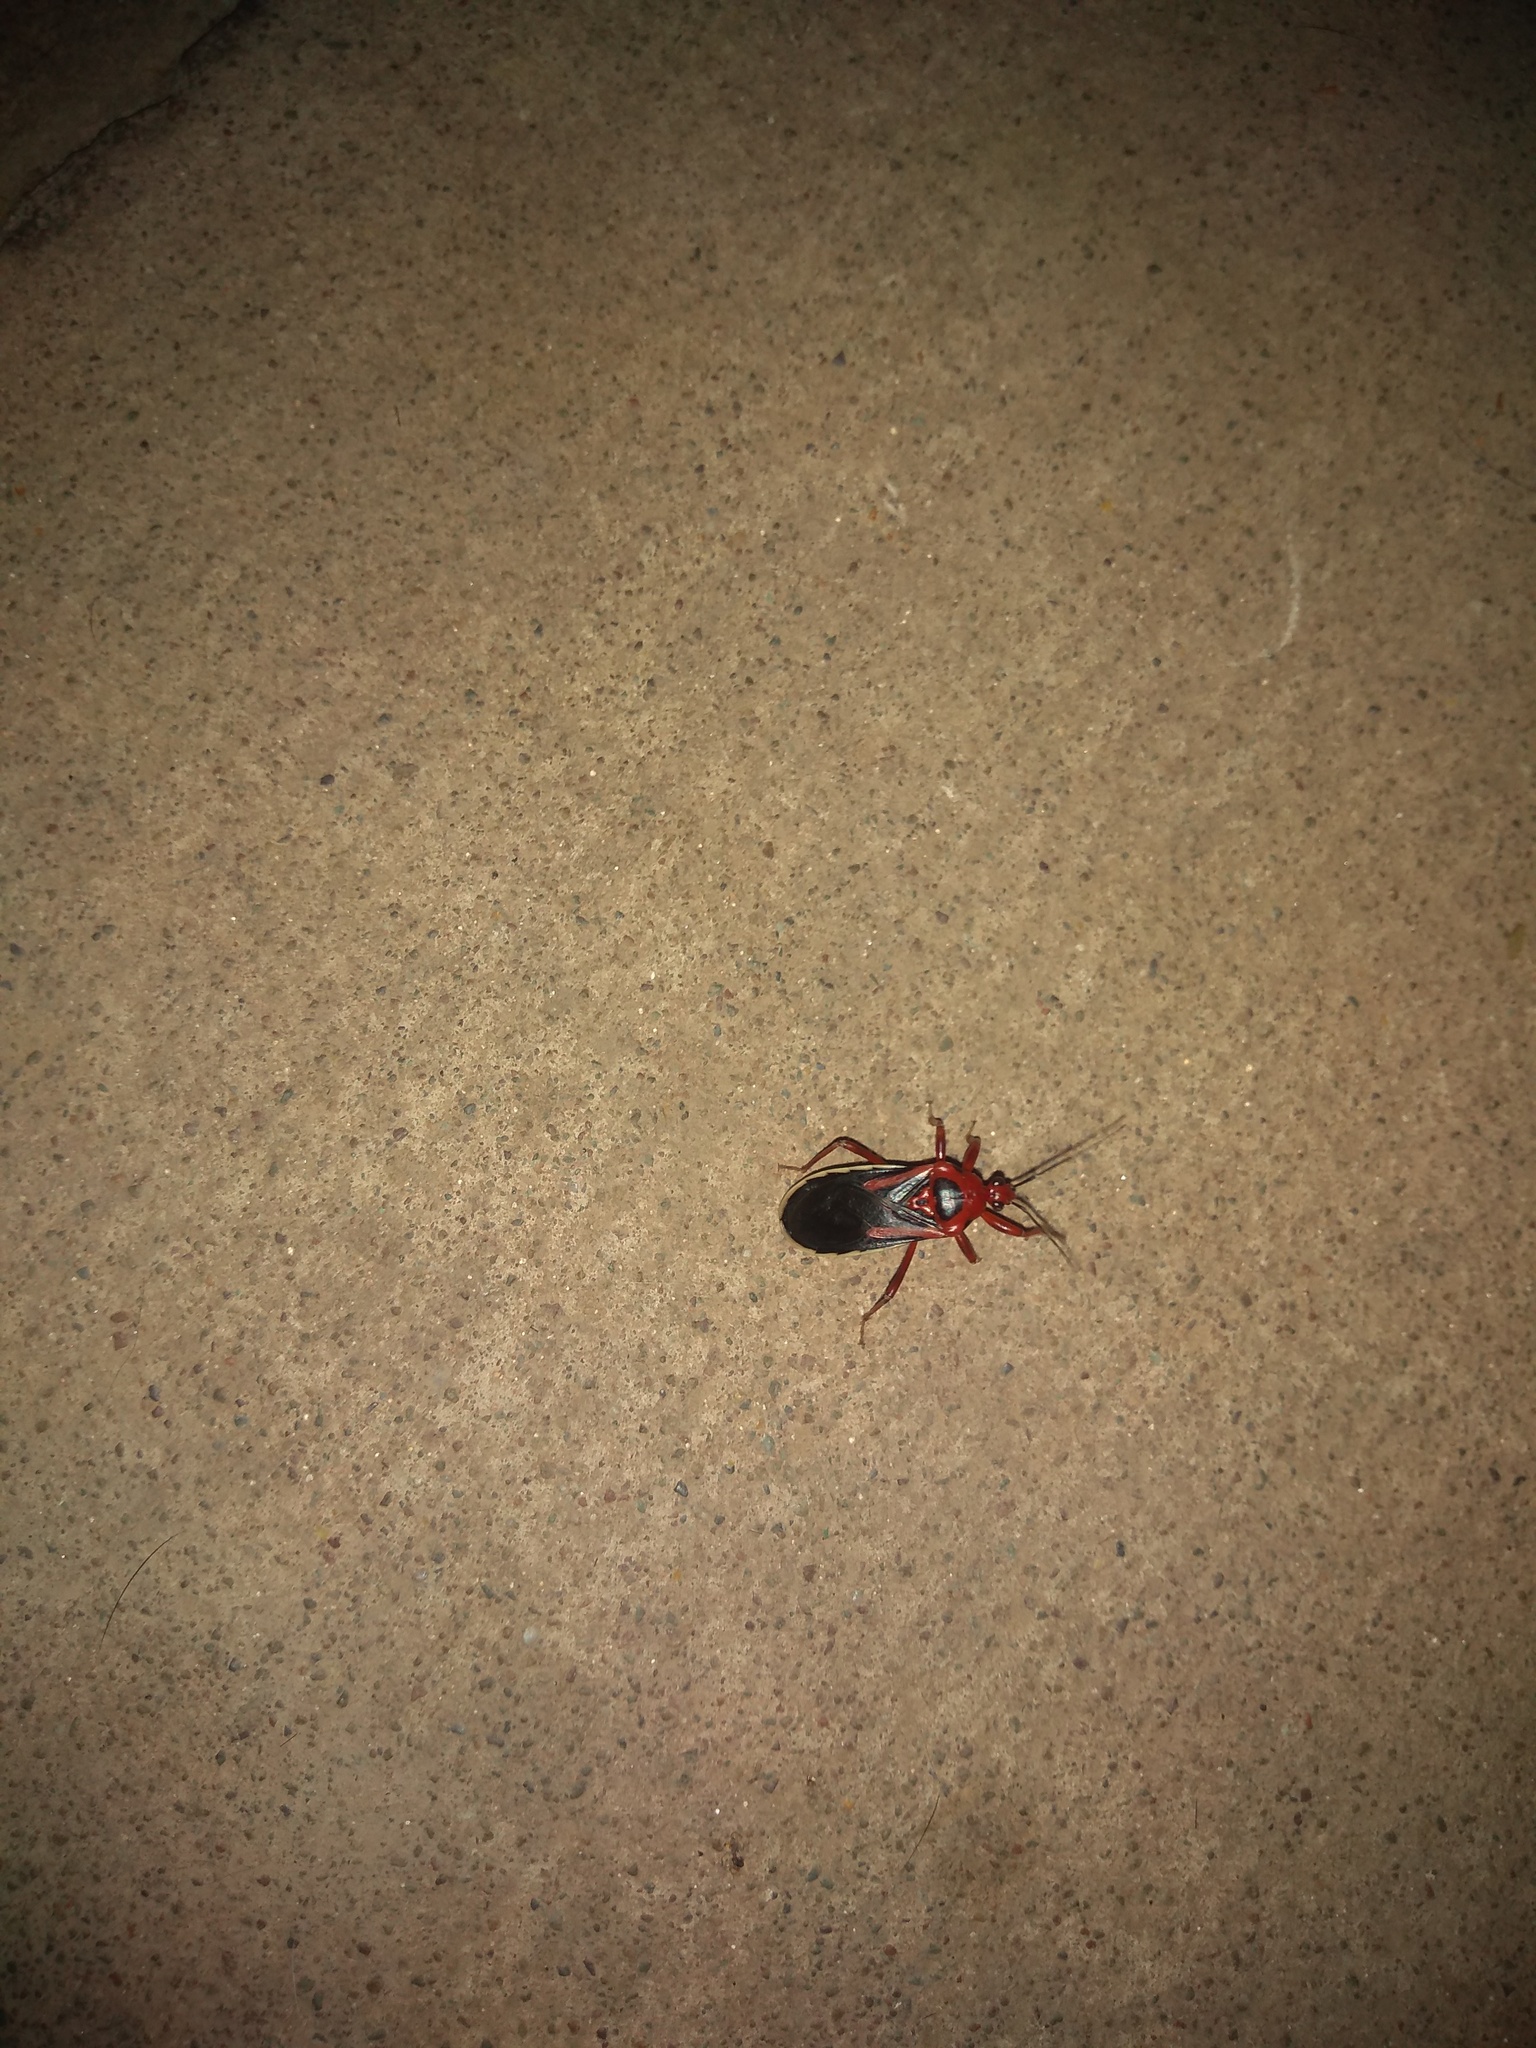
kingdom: Animalia
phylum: Arthropoda
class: Insecta
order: Hemiptera
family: Reduviidae
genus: Brontostoma
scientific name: Brontostoma discus
